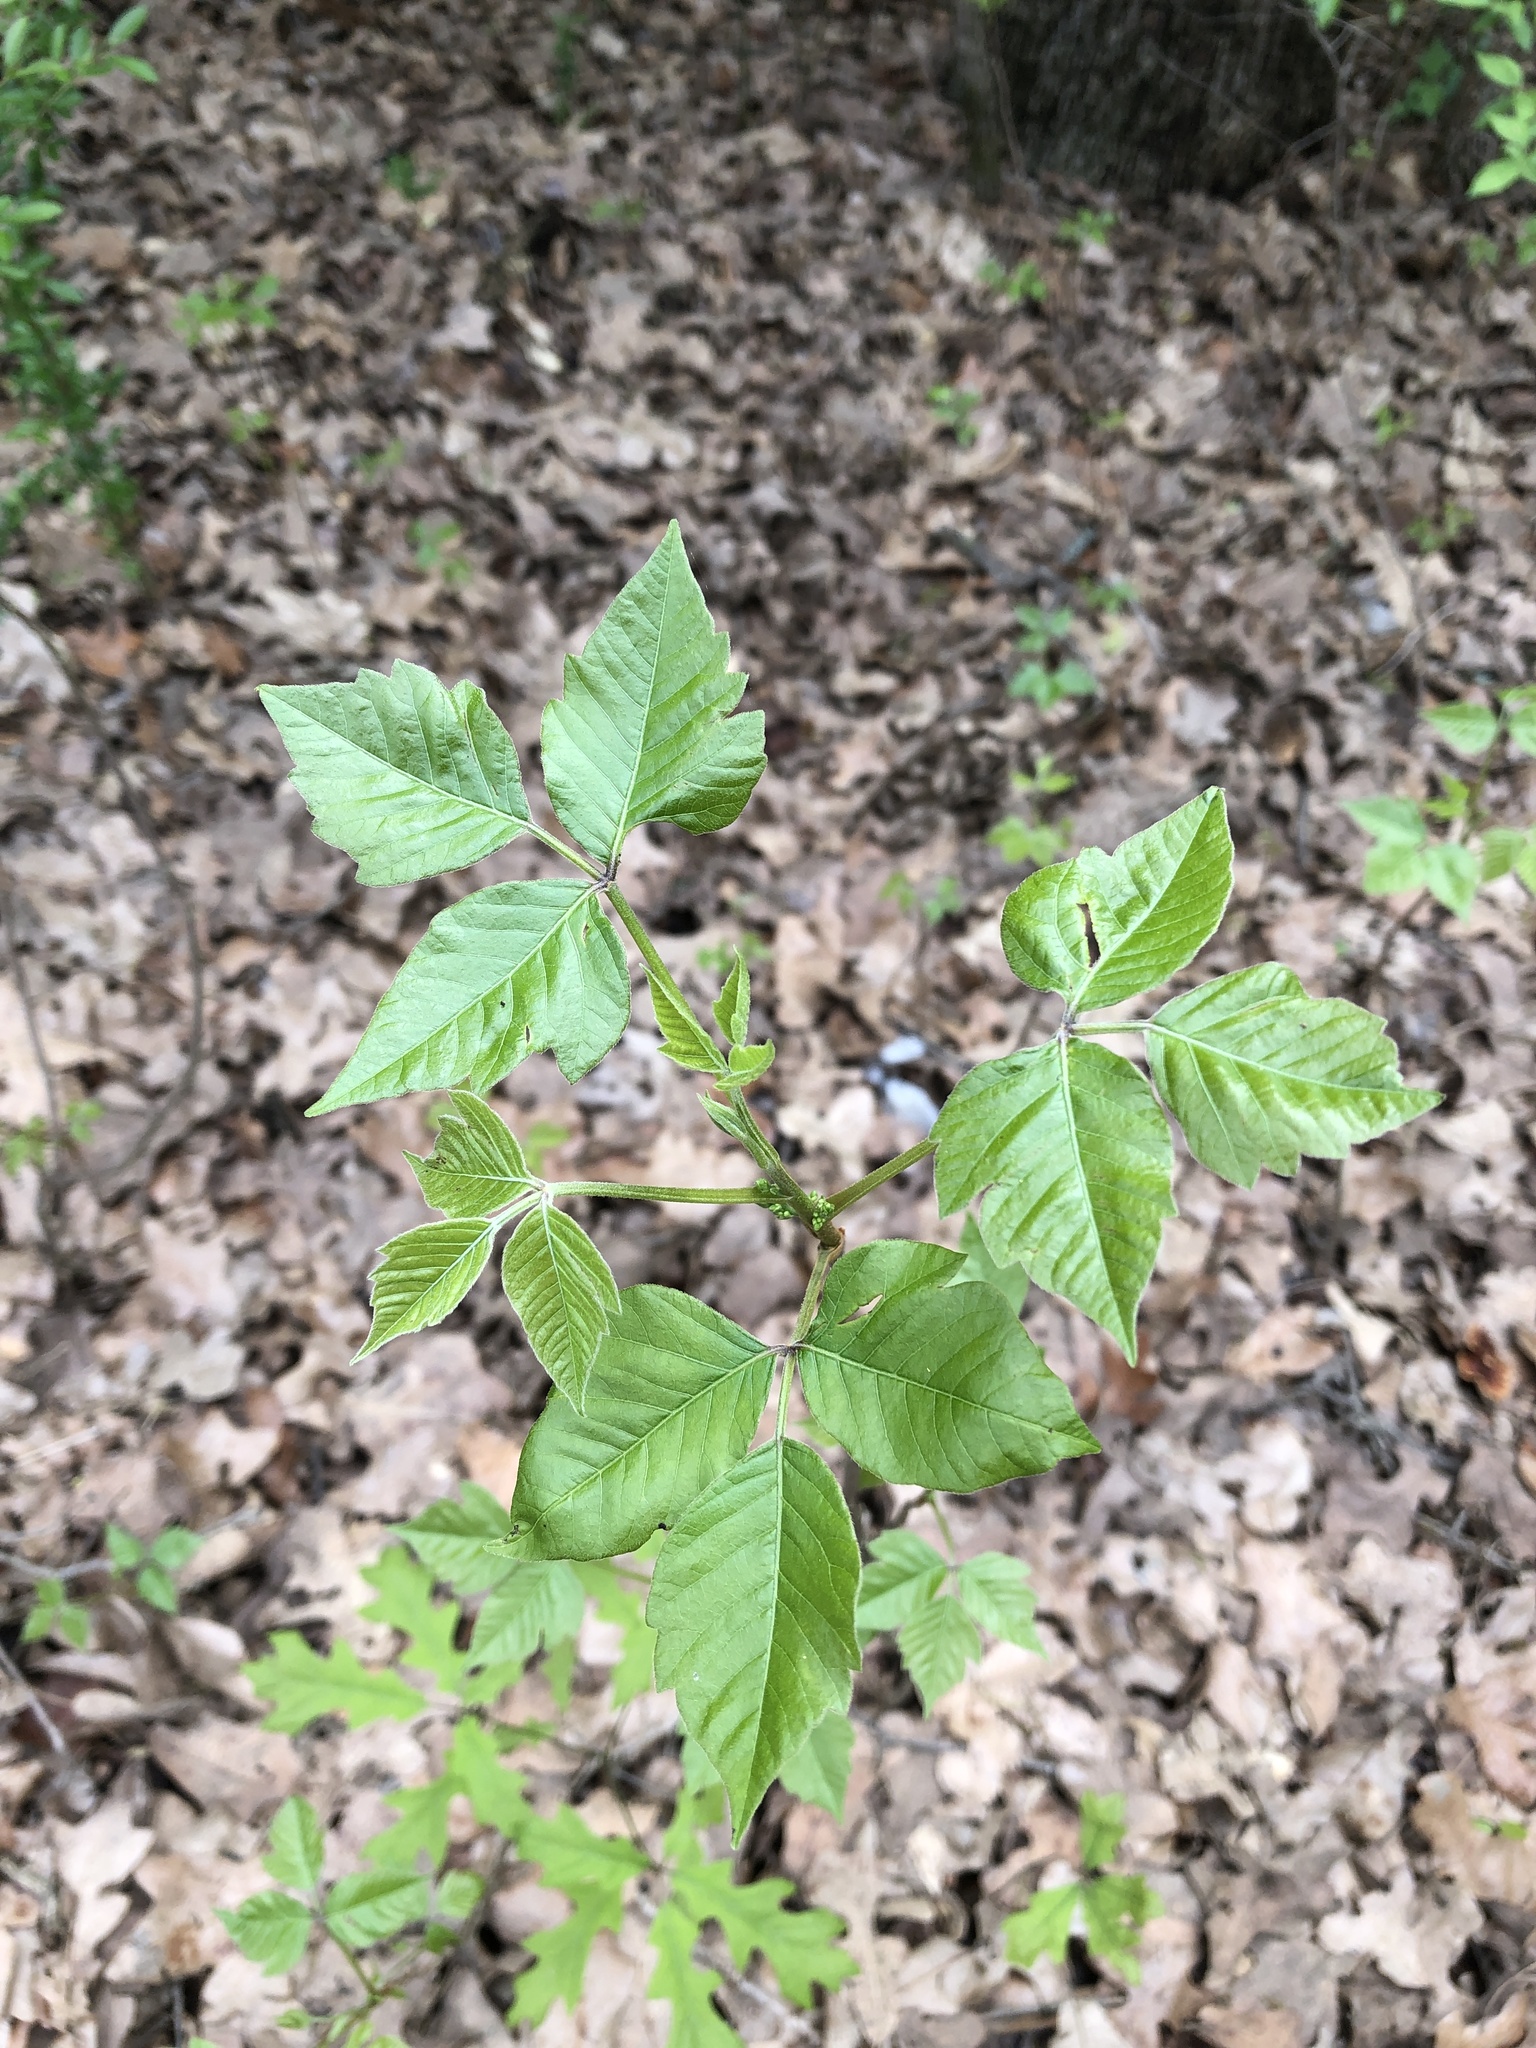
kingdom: Plantae
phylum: Tracheophyta
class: Magnoliopsida
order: Sapindales
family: Anacardiaceae
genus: Toxicodendron
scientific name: Toxicodendron radicans
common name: Poison ivy
